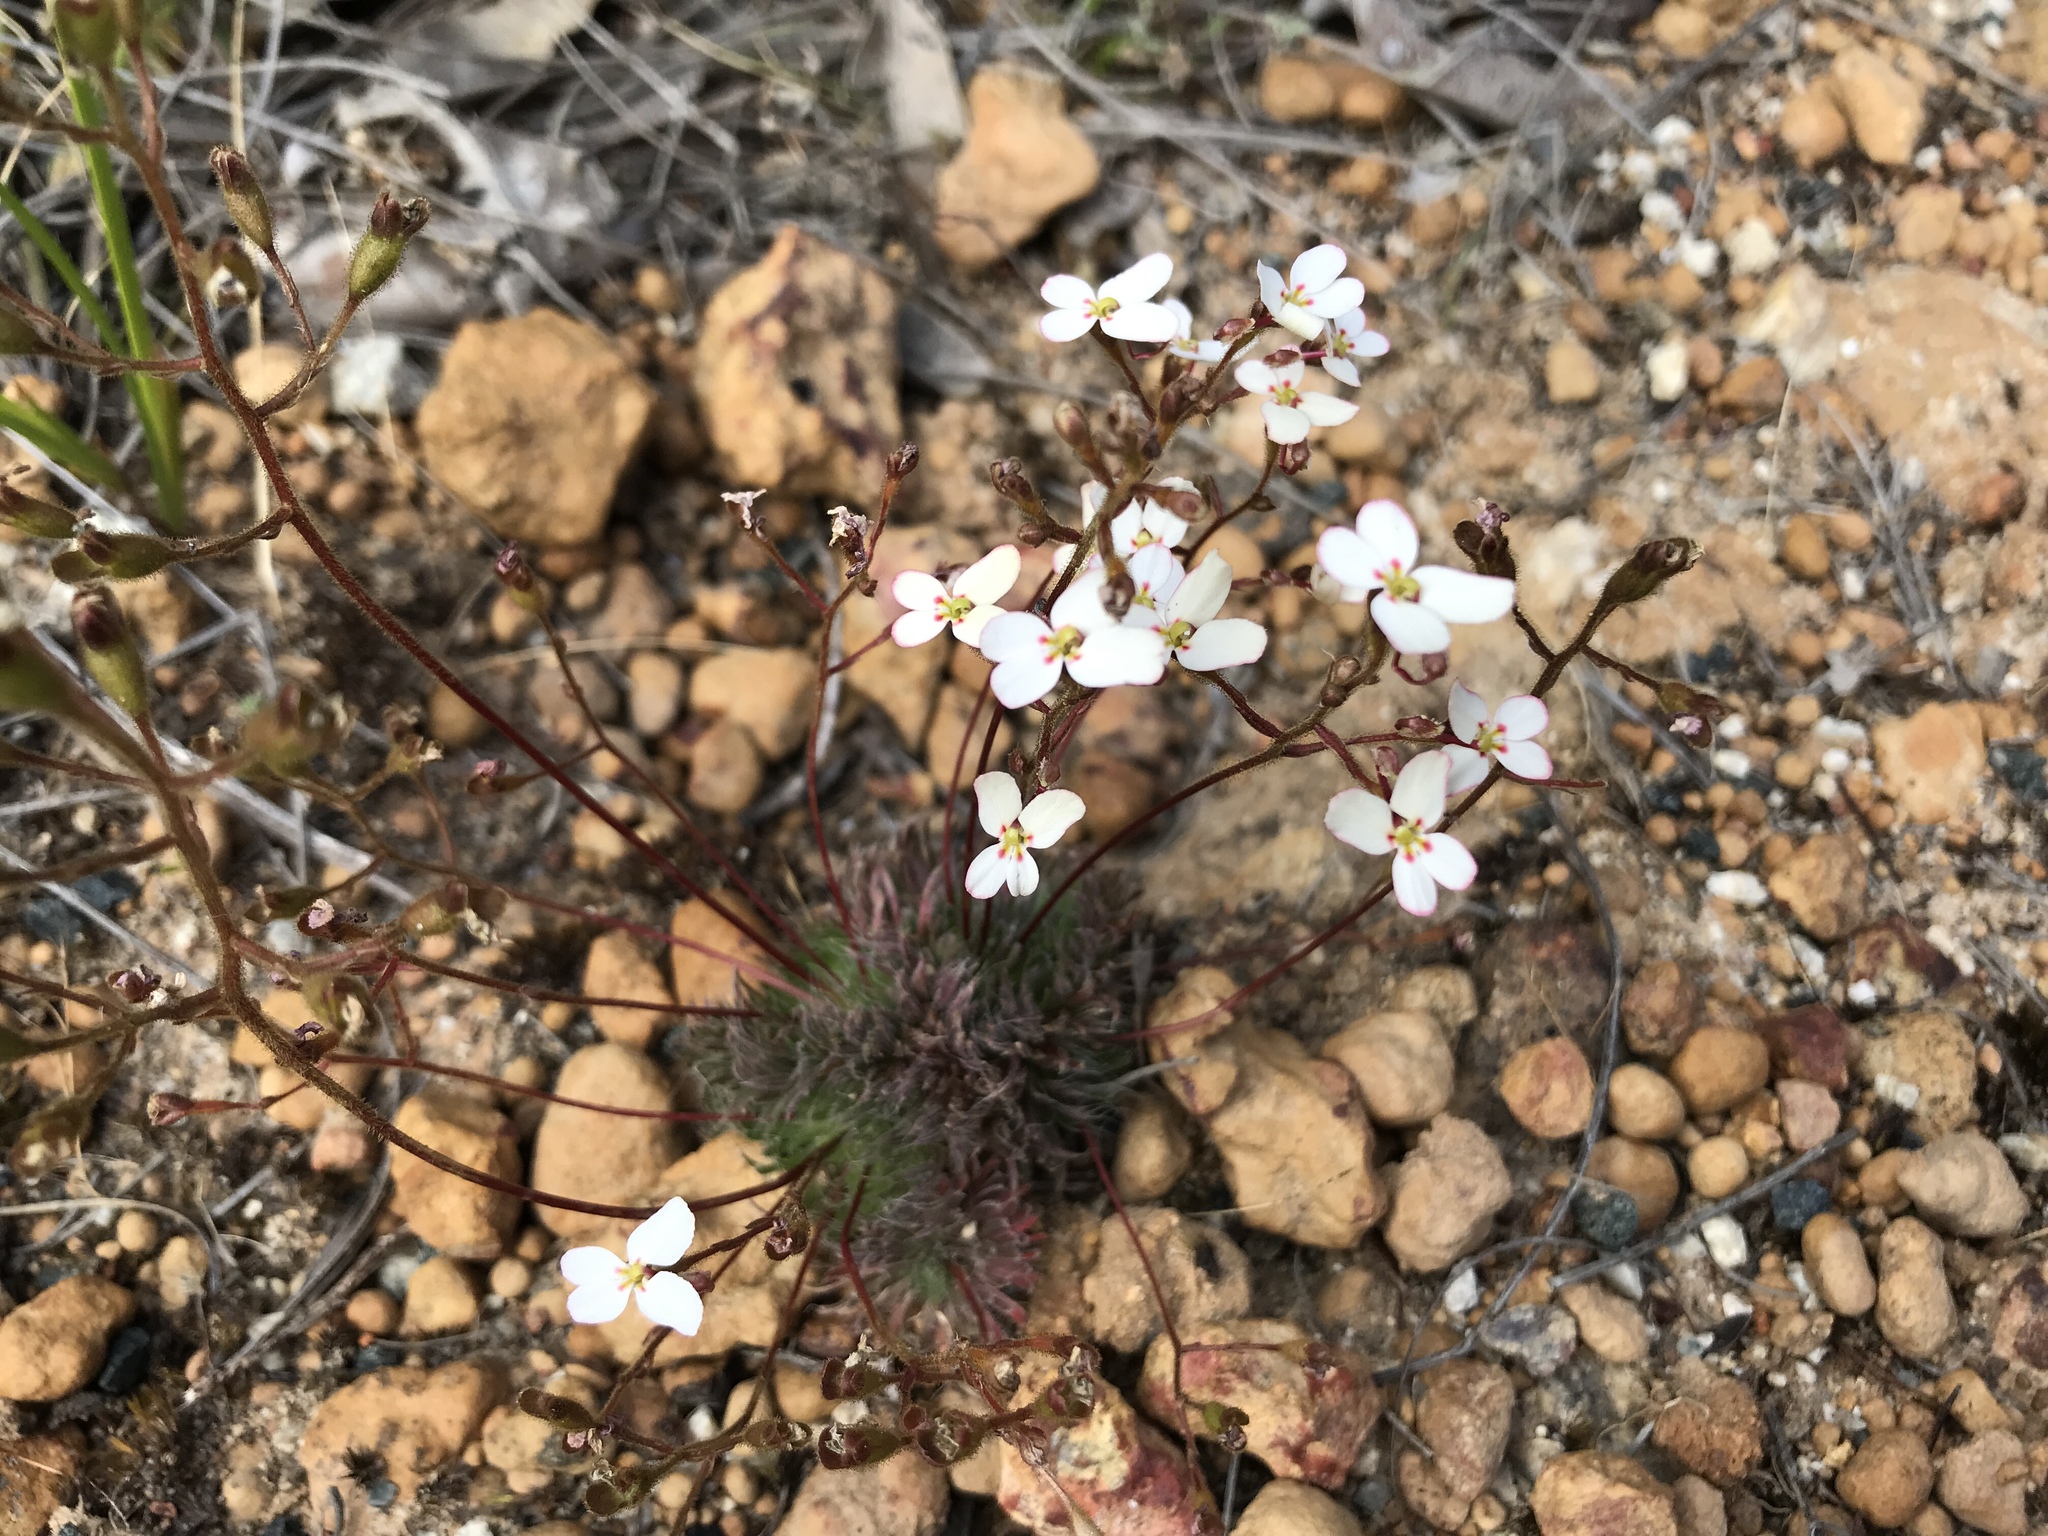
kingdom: Plantae
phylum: Tracheophyta
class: Magnoliopsida
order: Asterales
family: Stylidiaceae
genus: Stylidium
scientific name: Stylidium hispidum
